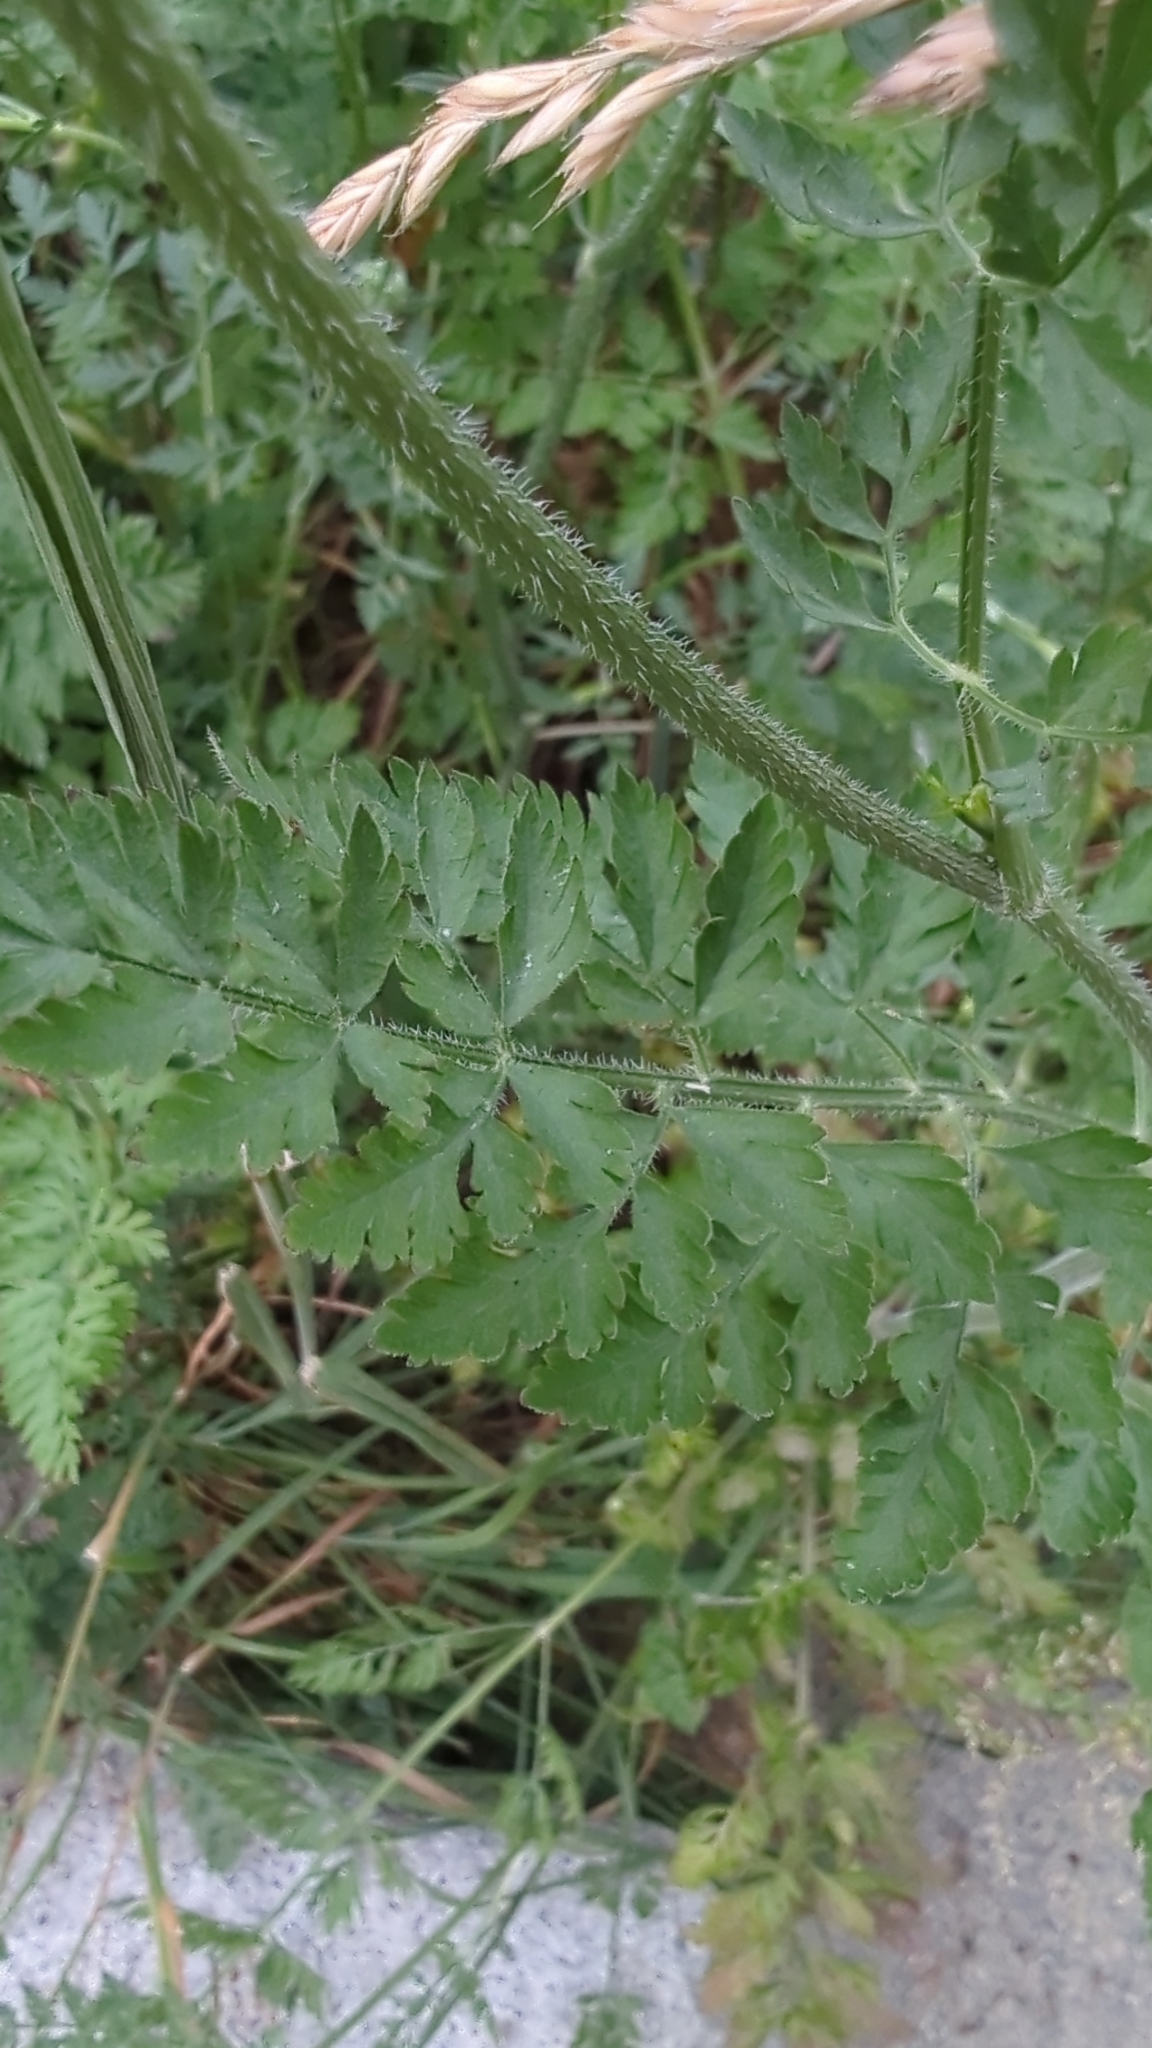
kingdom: Plantae
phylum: Tracheophyta
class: Magnoliopsida
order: Apiales
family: Apiaceae
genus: Daucus
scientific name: Daucus carota
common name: Wild carrot
